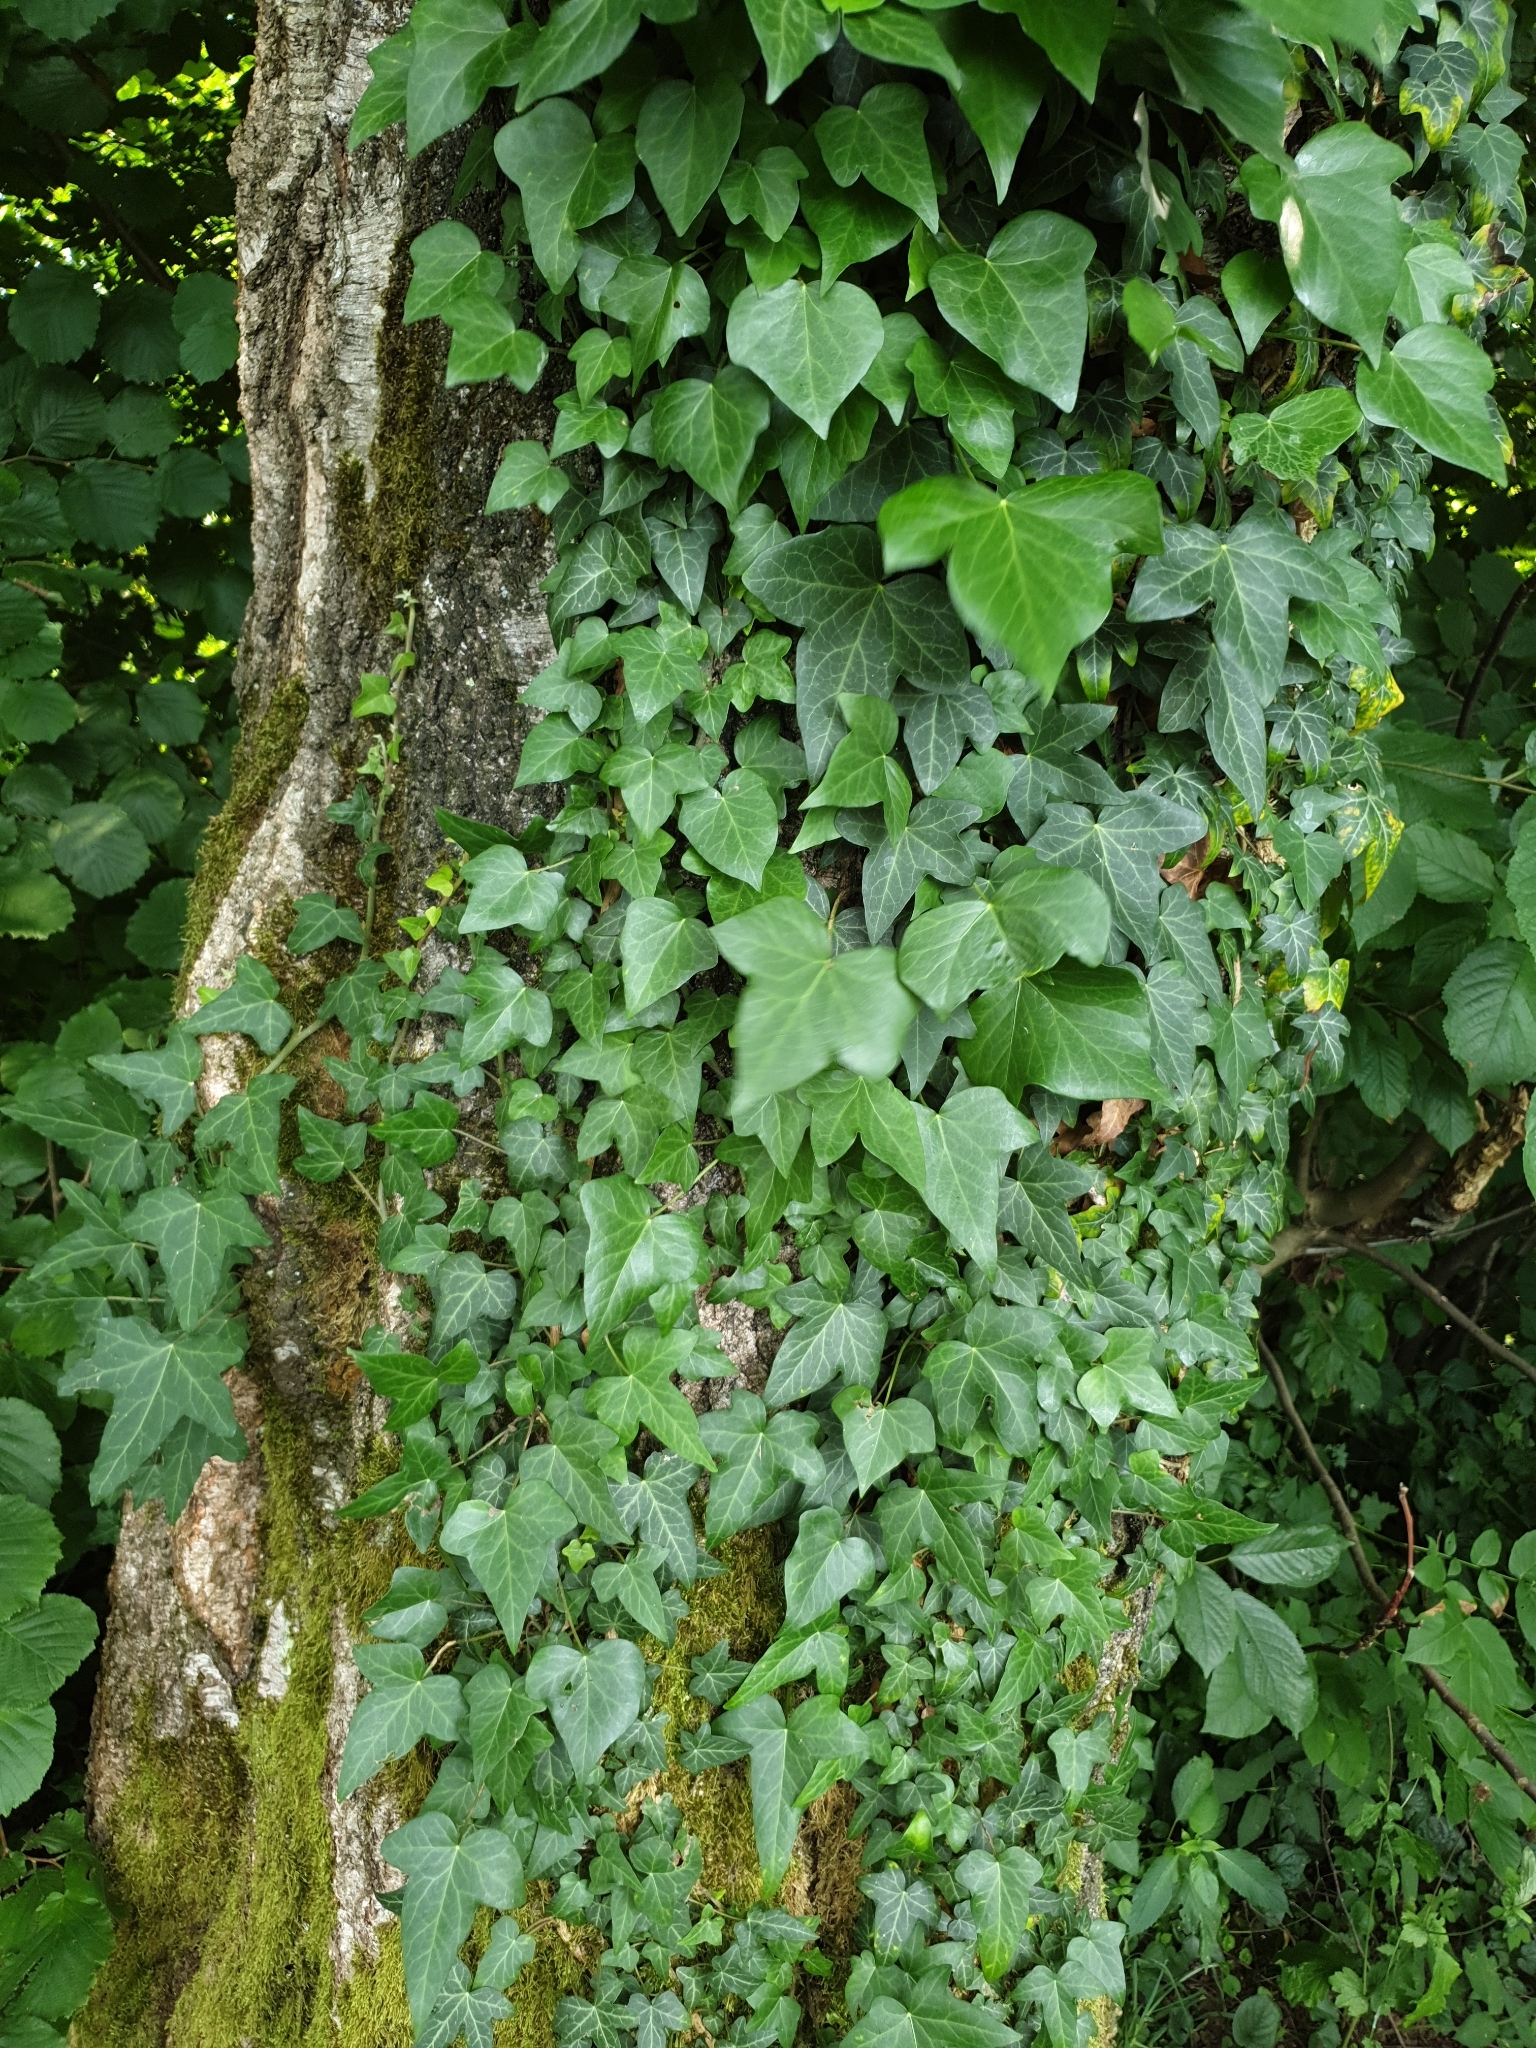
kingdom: Plantae
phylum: Tracheophyta
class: Magnoliopsida
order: Apiales
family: Araliaceae
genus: Hedera
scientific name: Hedera helix
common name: Ivy
